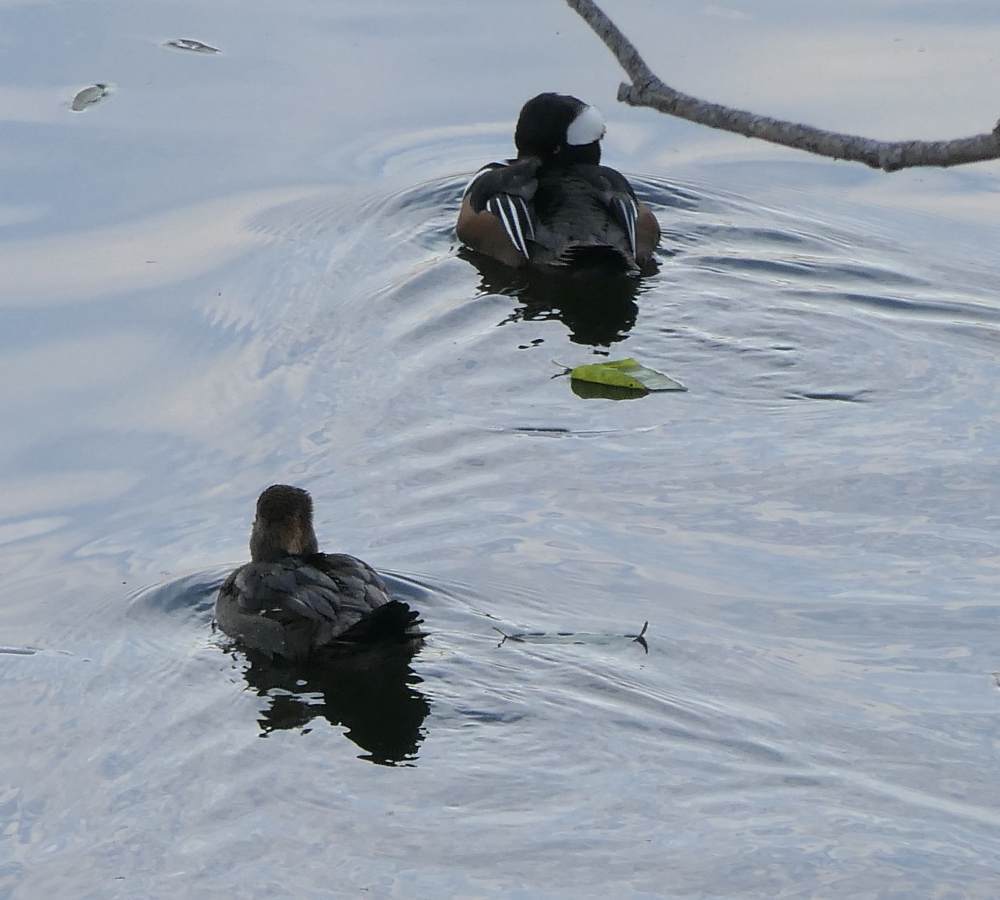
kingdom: Animalia
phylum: Chordata
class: Aves
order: Anseriformes
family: Anatidae
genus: Lophodytes
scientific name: Lophodytes cucullatus
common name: Hooded merganser
